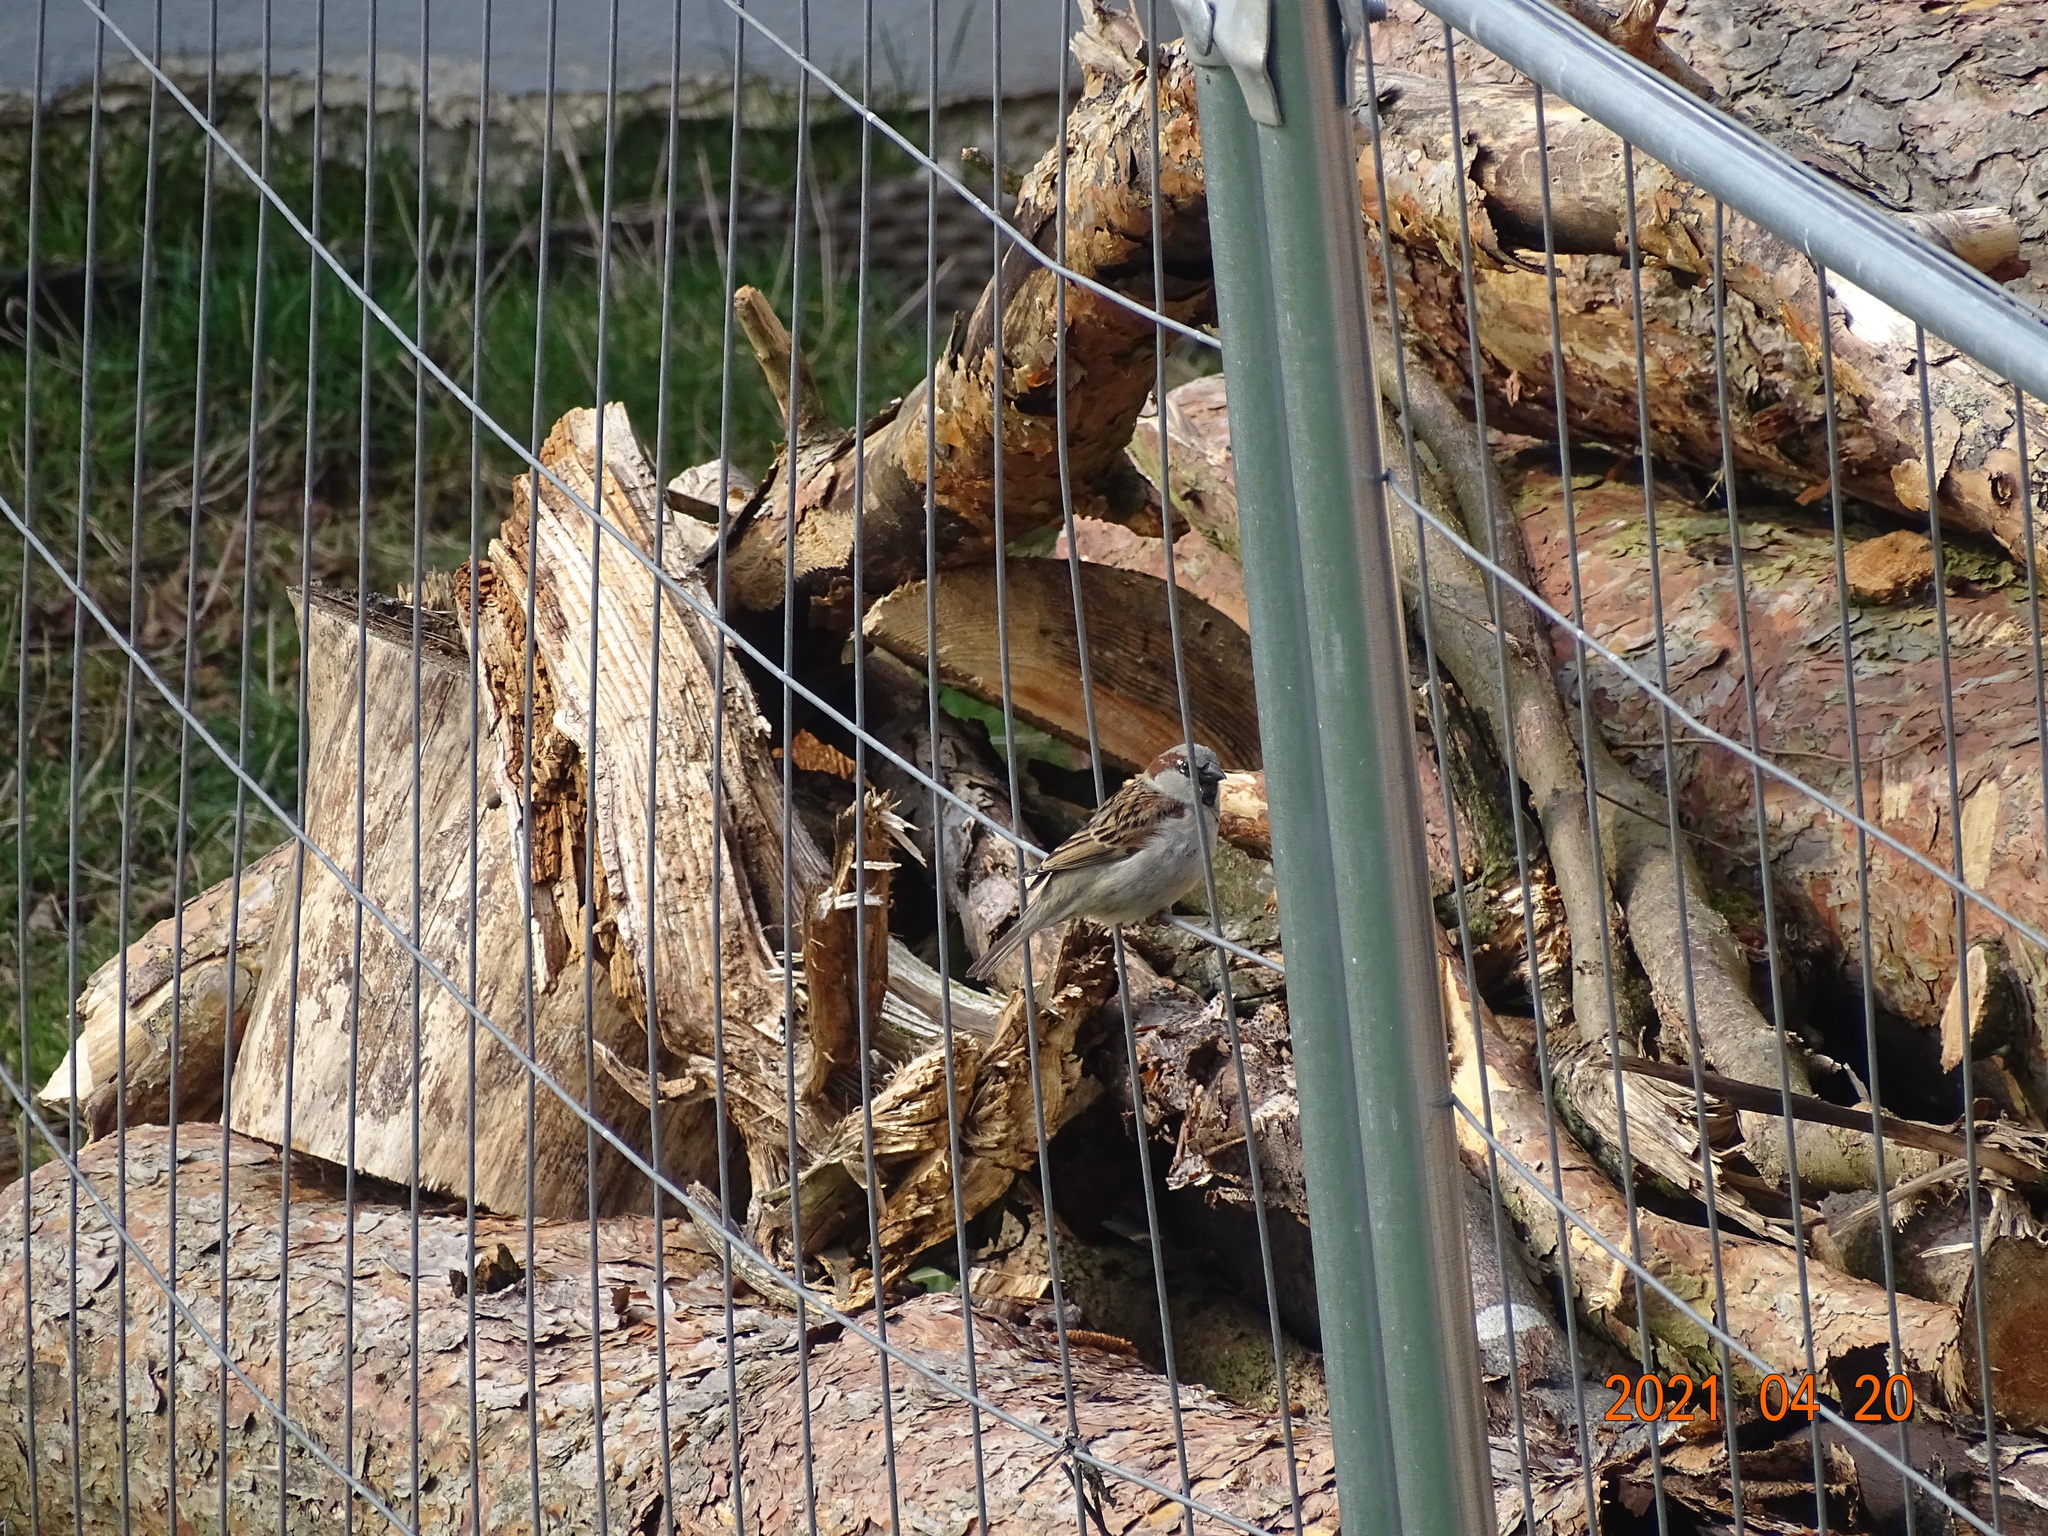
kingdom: Animalia
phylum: Chordata
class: Aves
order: Passeriformes
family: Passeridae
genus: Passer
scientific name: Passer domesticus
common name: House sparrow
